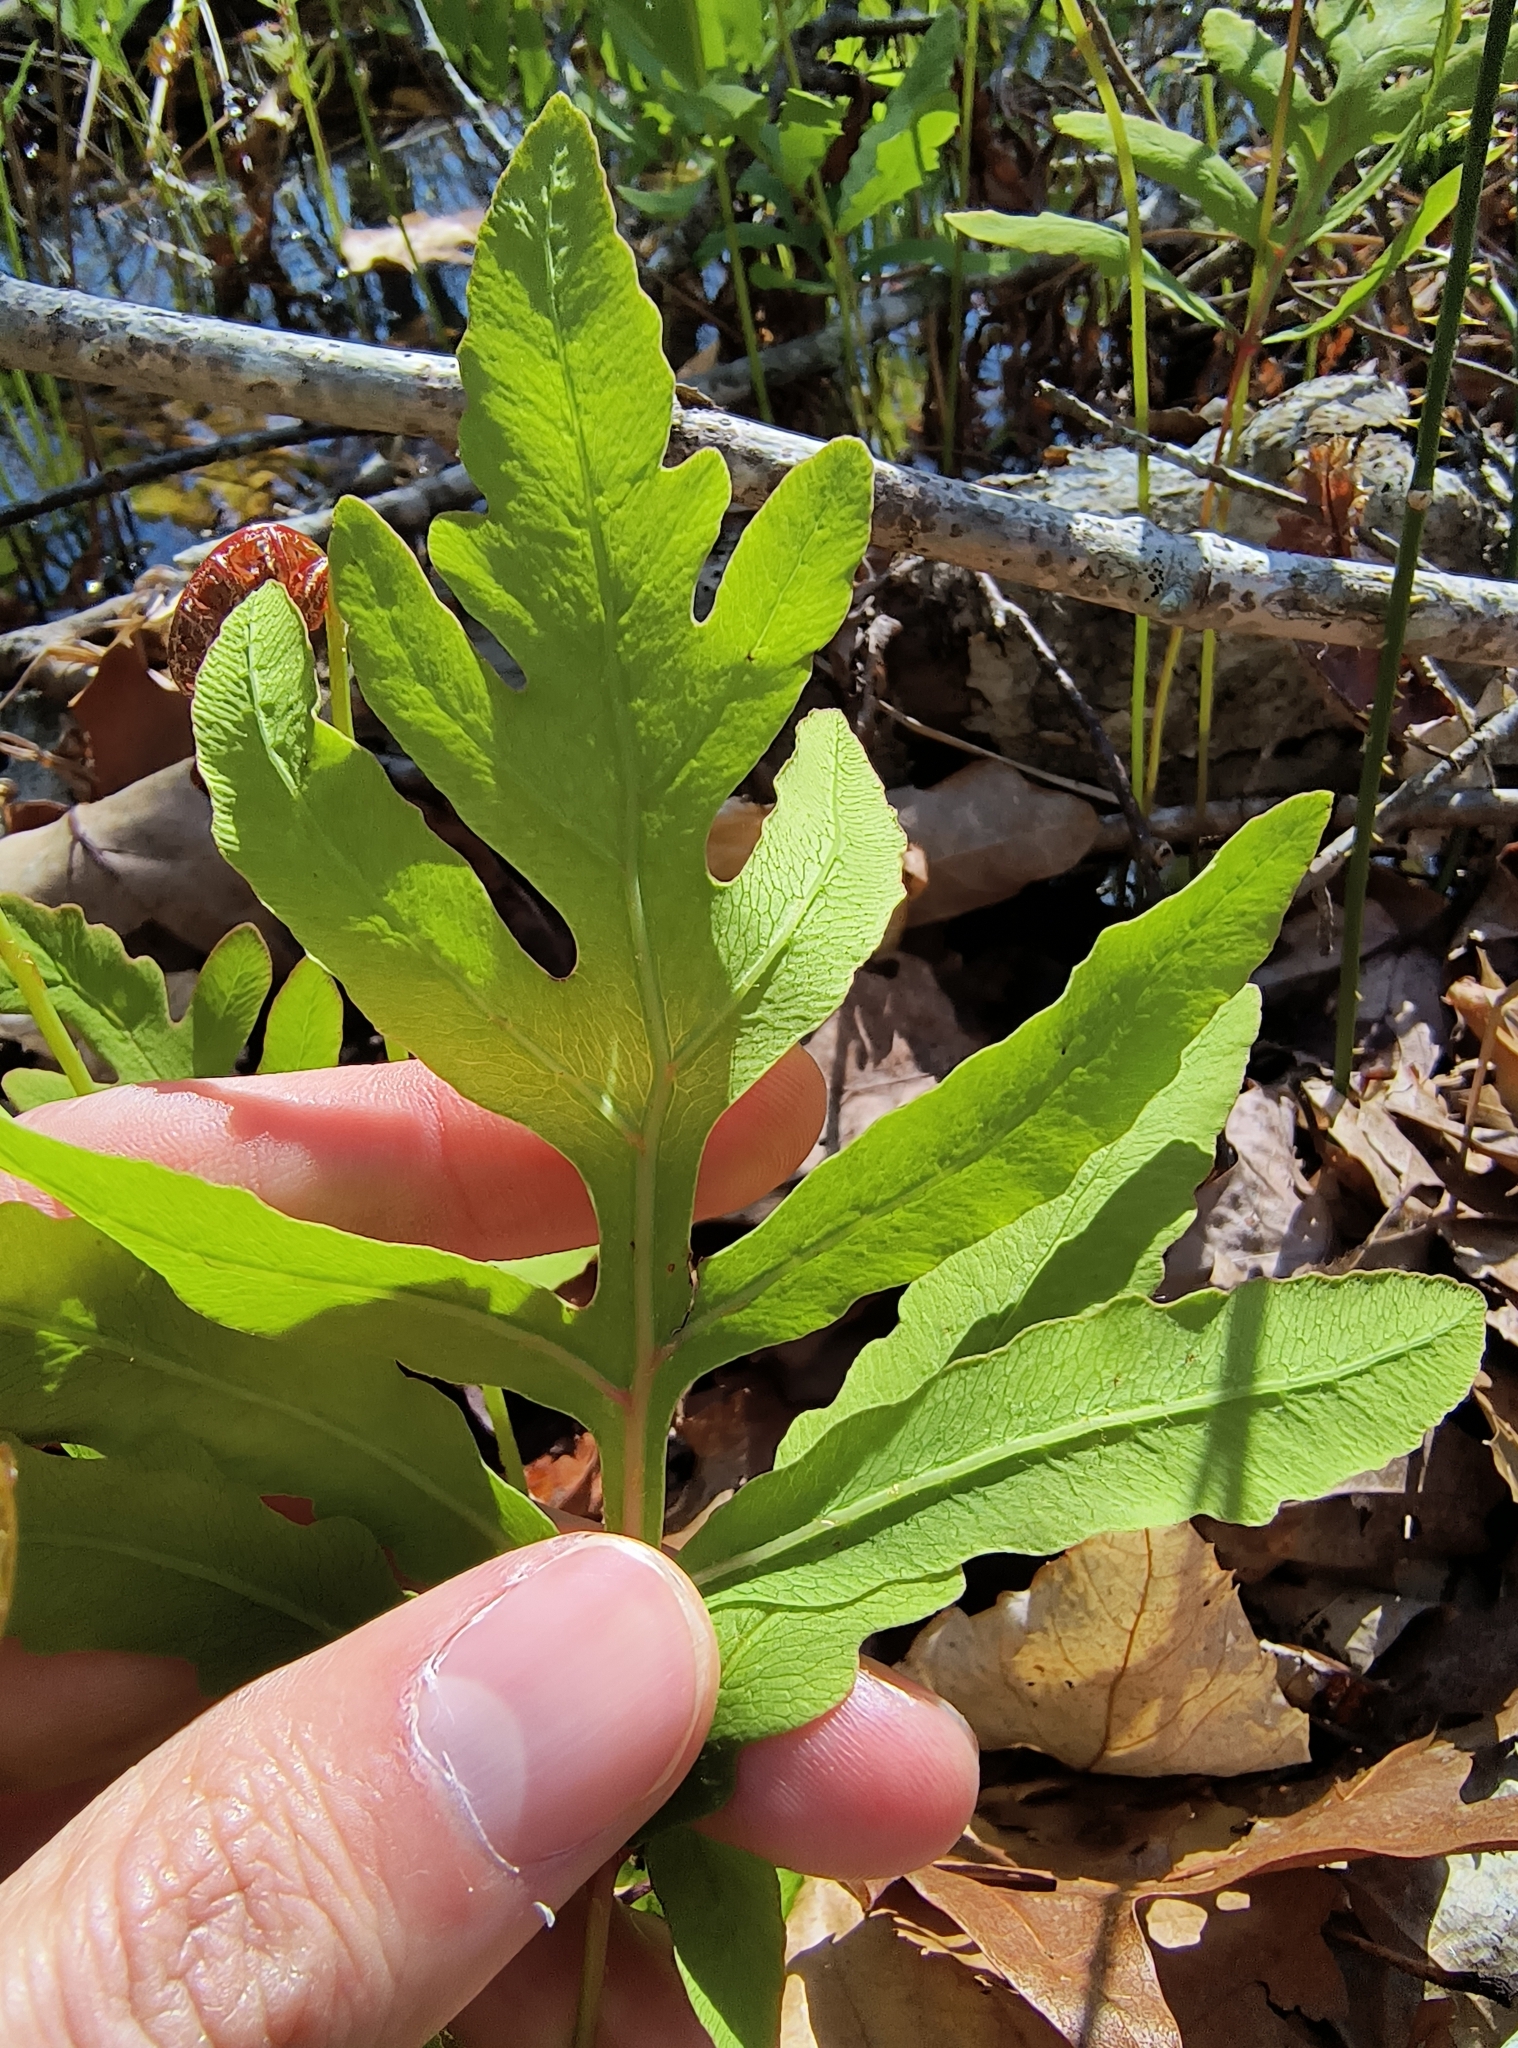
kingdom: Plantae
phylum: Tracheophyta
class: Polypodiopsida
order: Polypodiales
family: Onocleaceae
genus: Onoclea
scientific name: Onoclea sensibilis
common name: Sensitive fern
